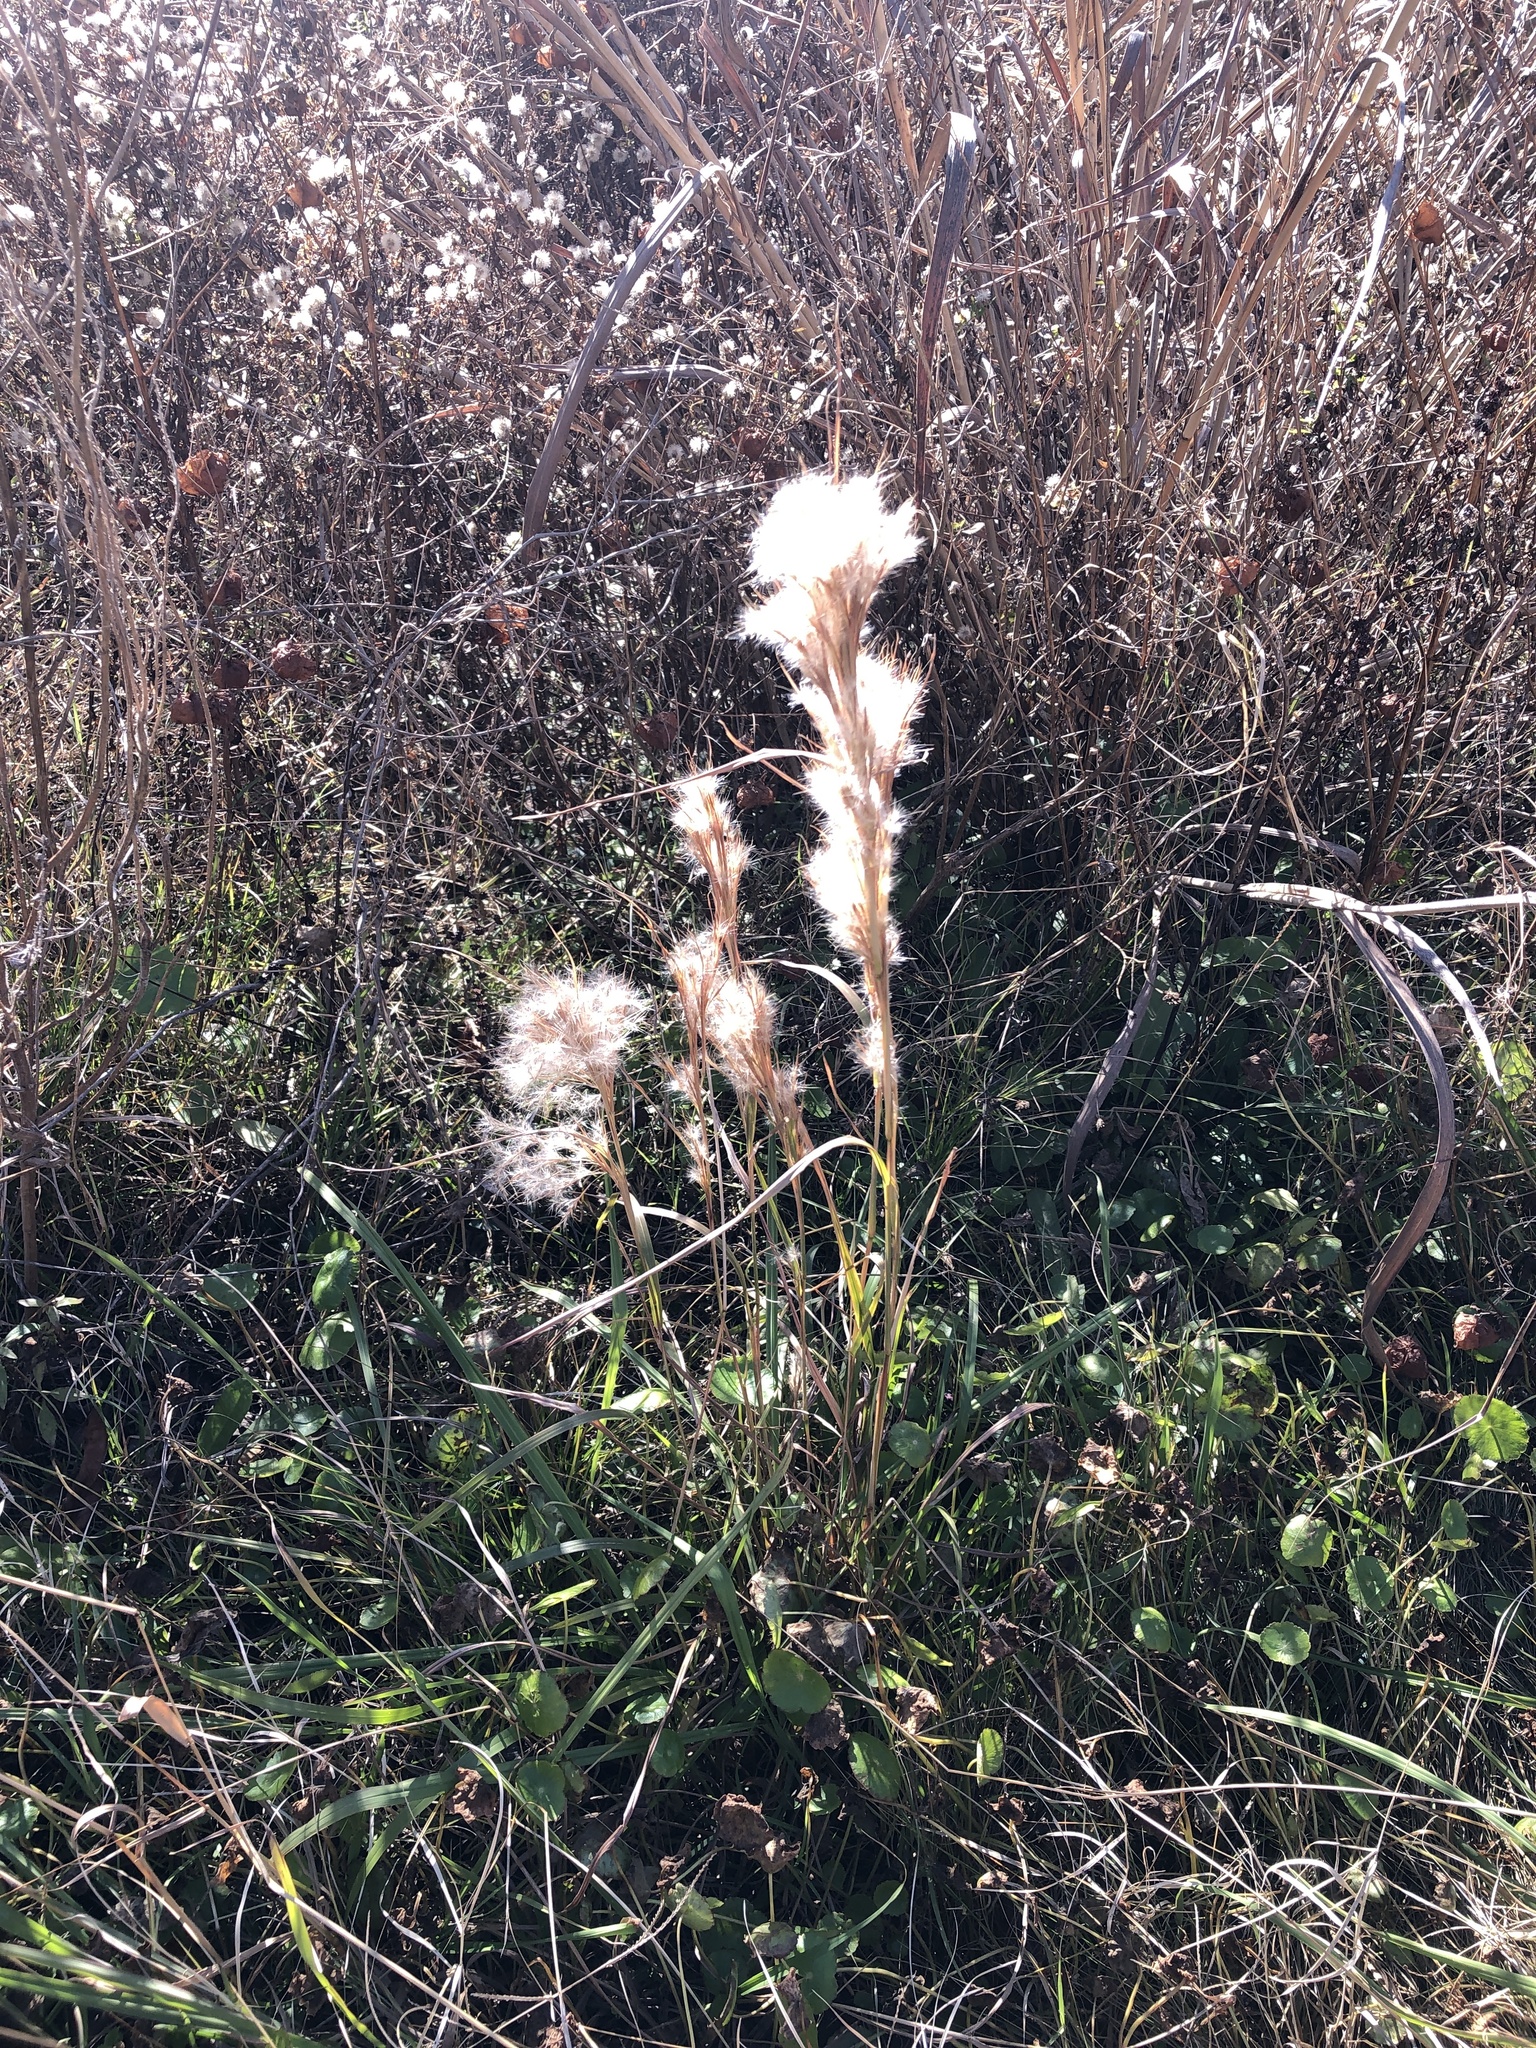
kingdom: Plantae
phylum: Tracheophyta
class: Liliopsida
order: Poales
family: Poaceae
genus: Andropogon
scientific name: Andropogon tenuispatheus
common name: Bushy bluestem
